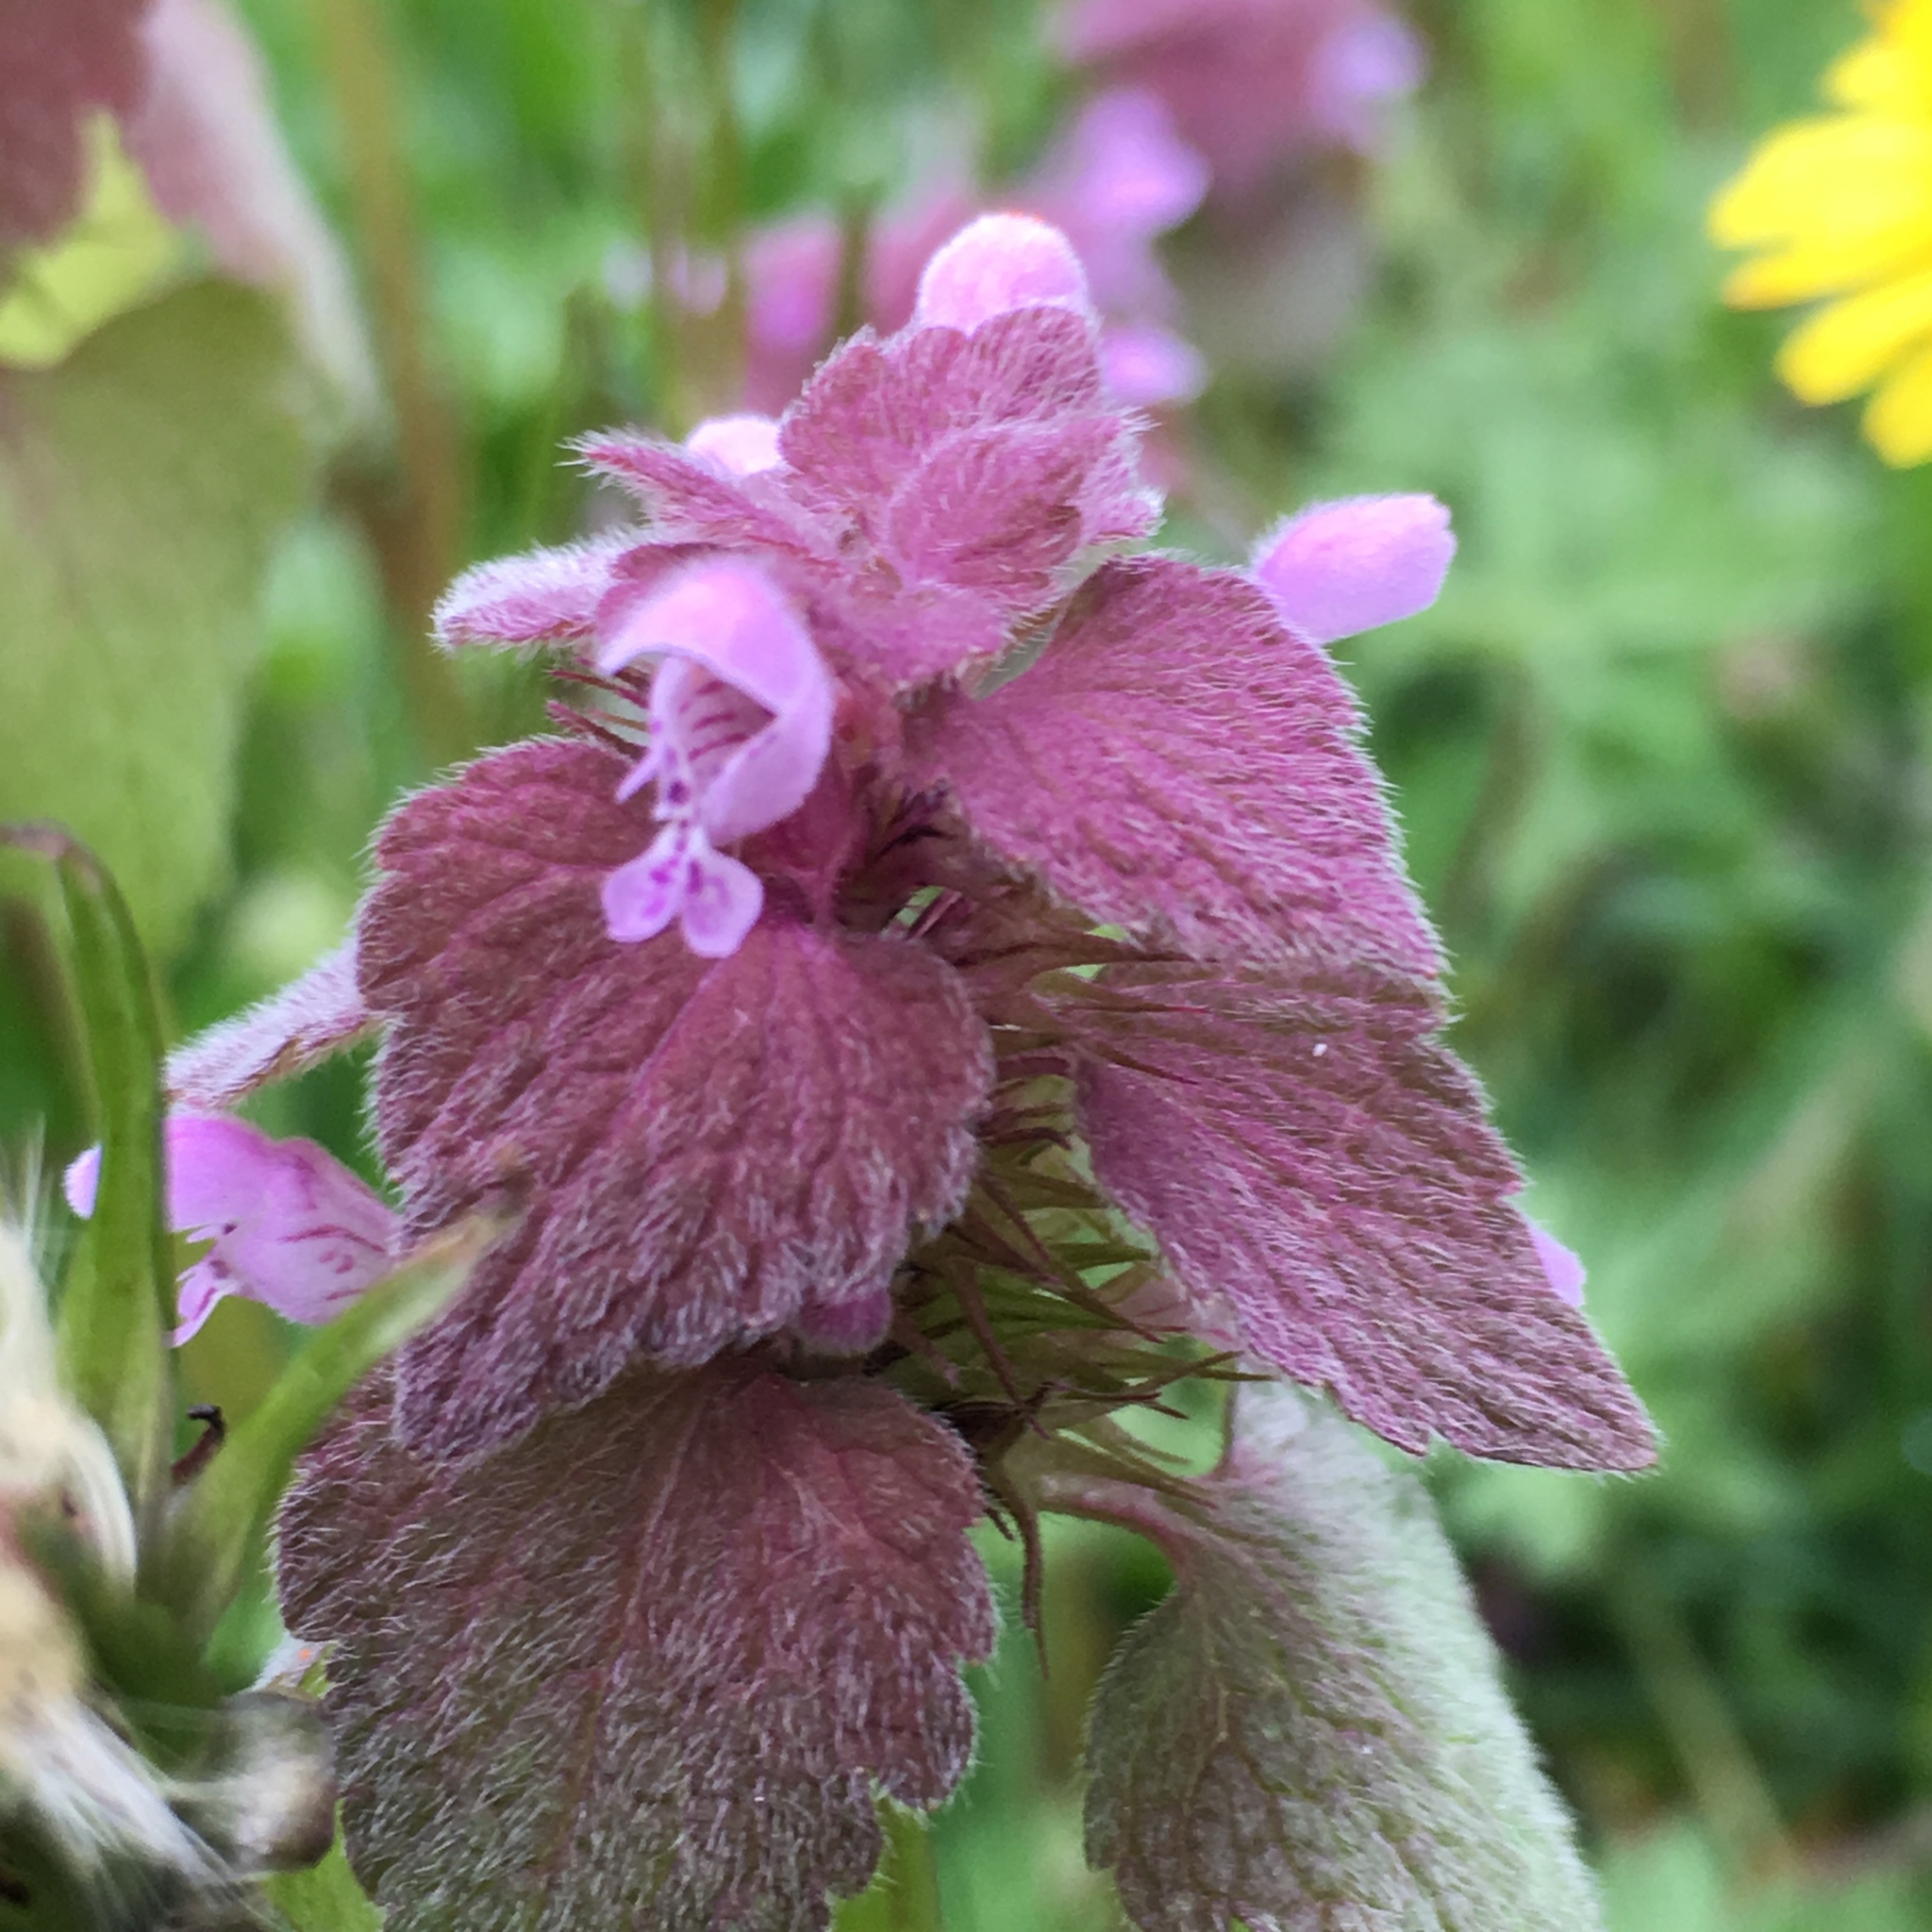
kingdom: Plantae
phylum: Tracheophyta
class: Magnoliopsida
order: Lamiales
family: Lamiaceae
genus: Lamium
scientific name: Lamium purpureum
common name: Red dead-nettle
